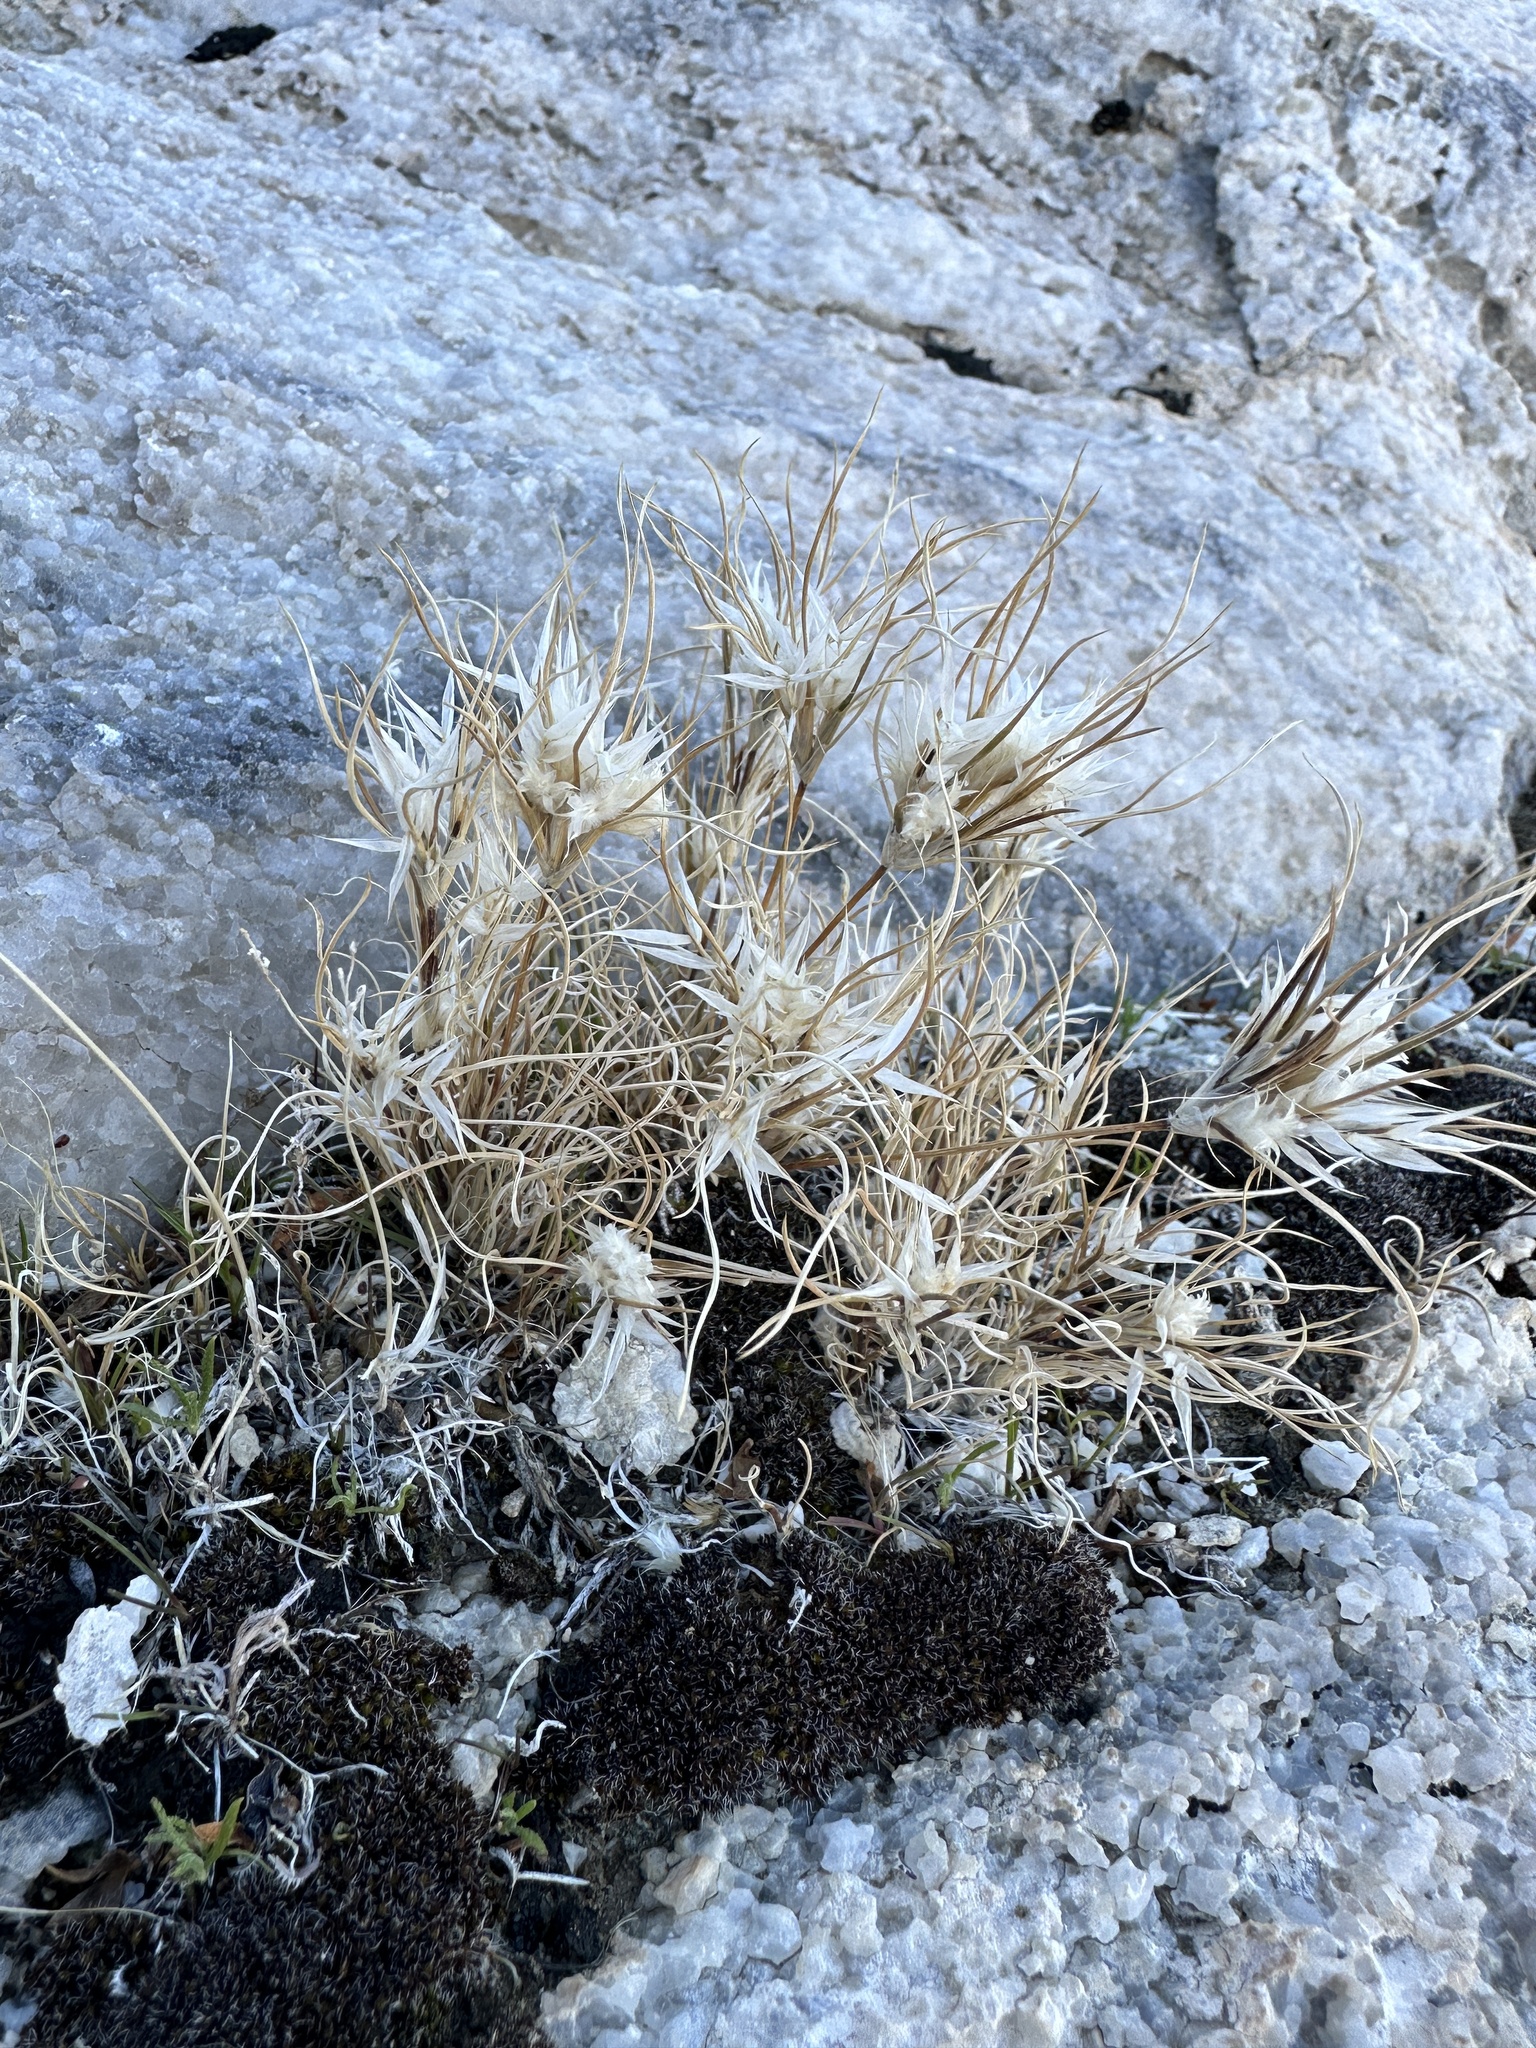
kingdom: Plantae
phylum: Tracheophyta
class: Liliopsida
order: Poales
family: Poaceae
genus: Dasyochloa
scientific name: Dasyochloa pulchella
